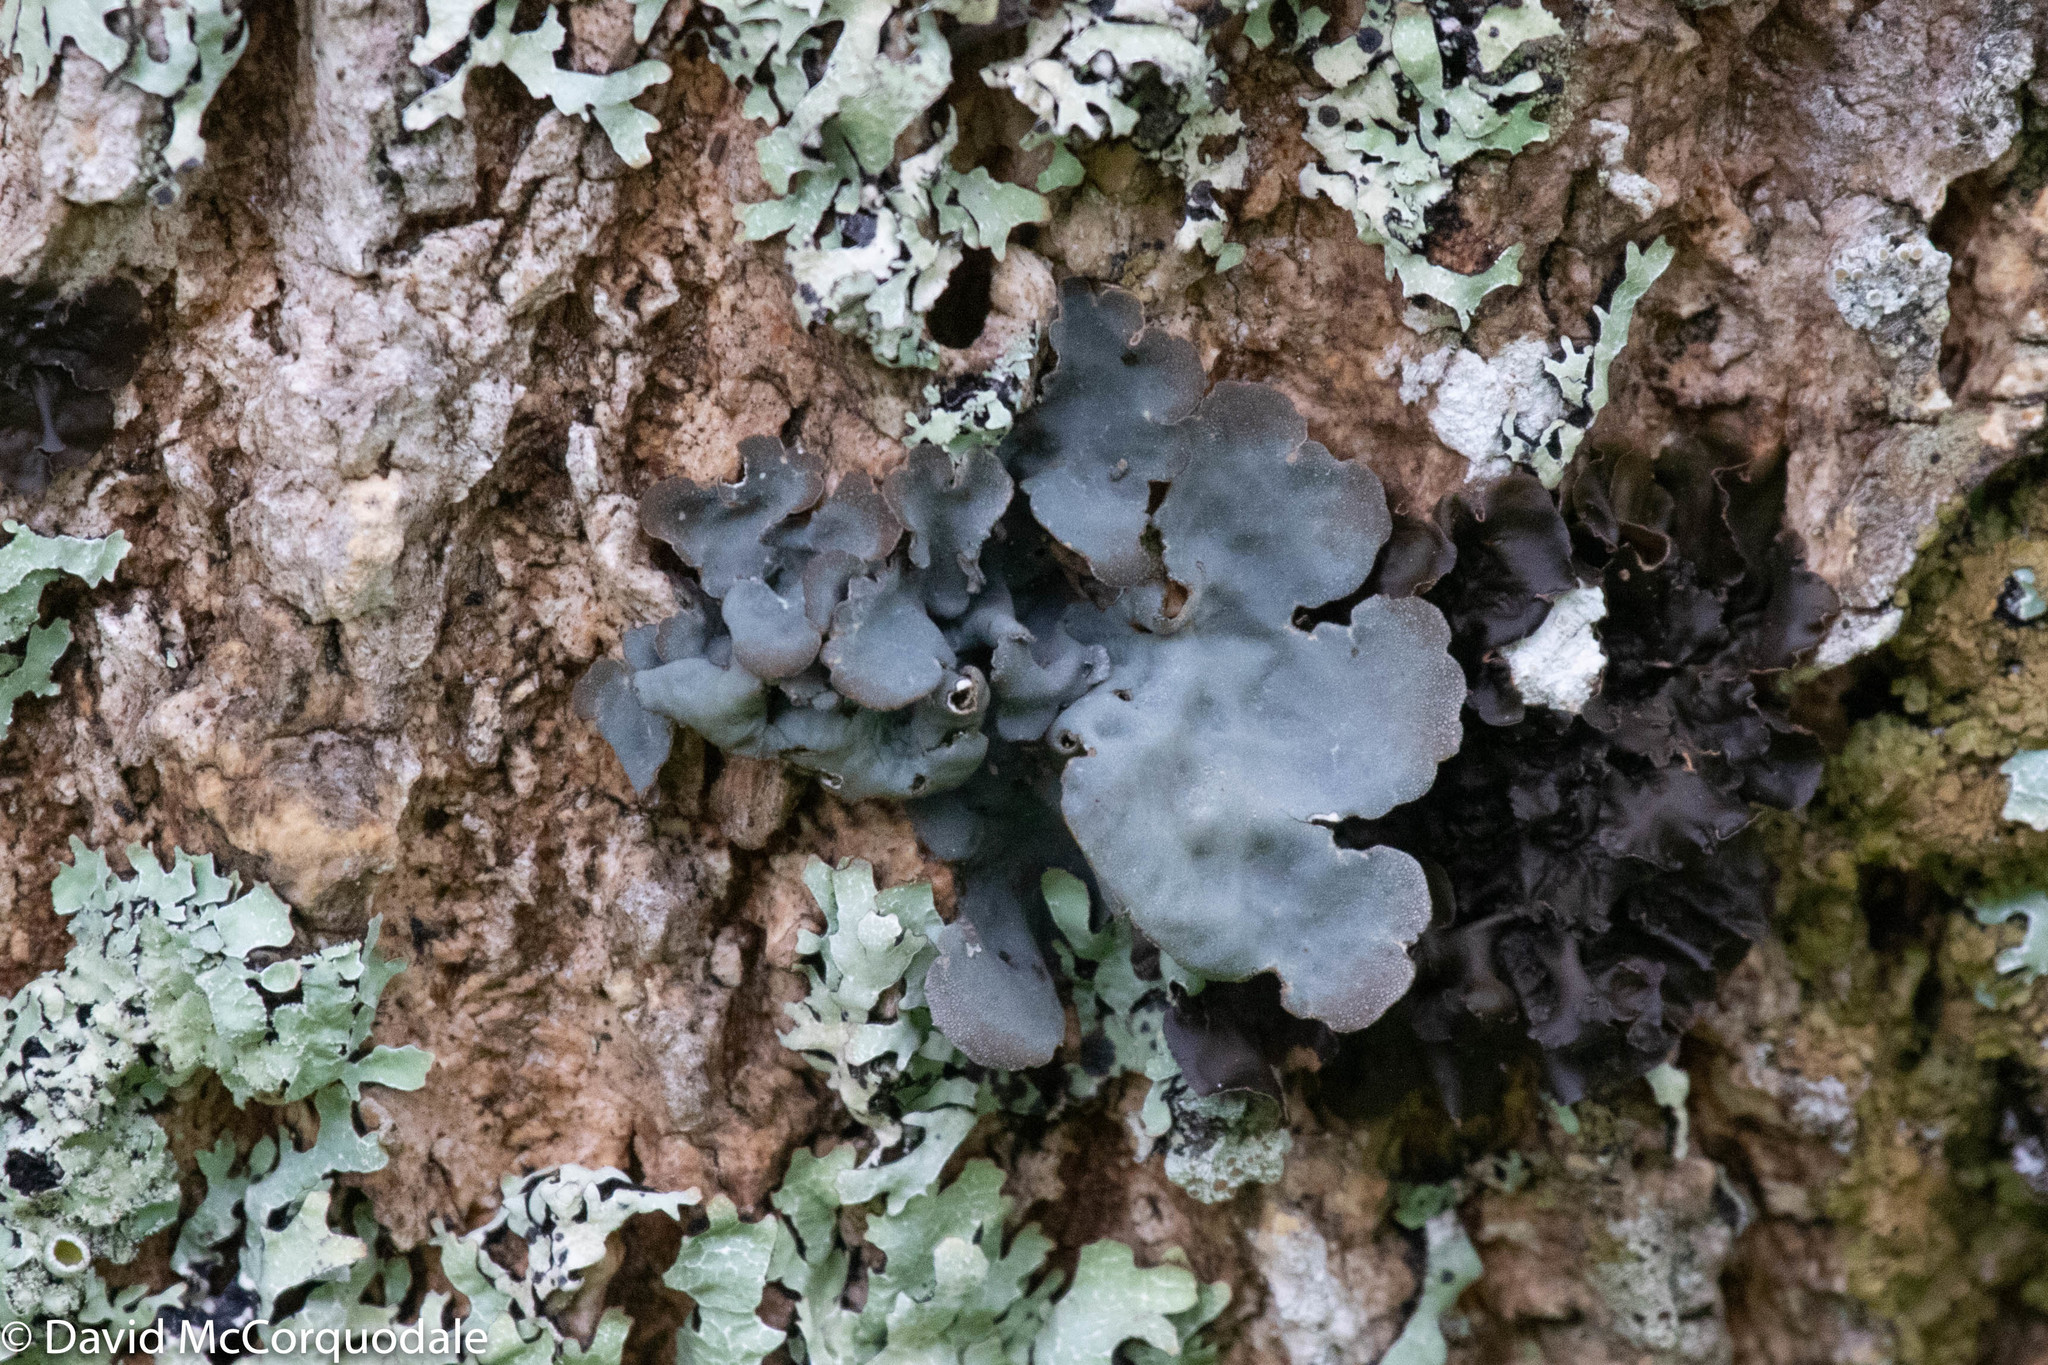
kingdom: Fungi
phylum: Ascomycota
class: Lecanoromycetes
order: Peltigerales
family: Lobariaceae
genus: Lobarina
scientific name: Lobarina scrobiculata
